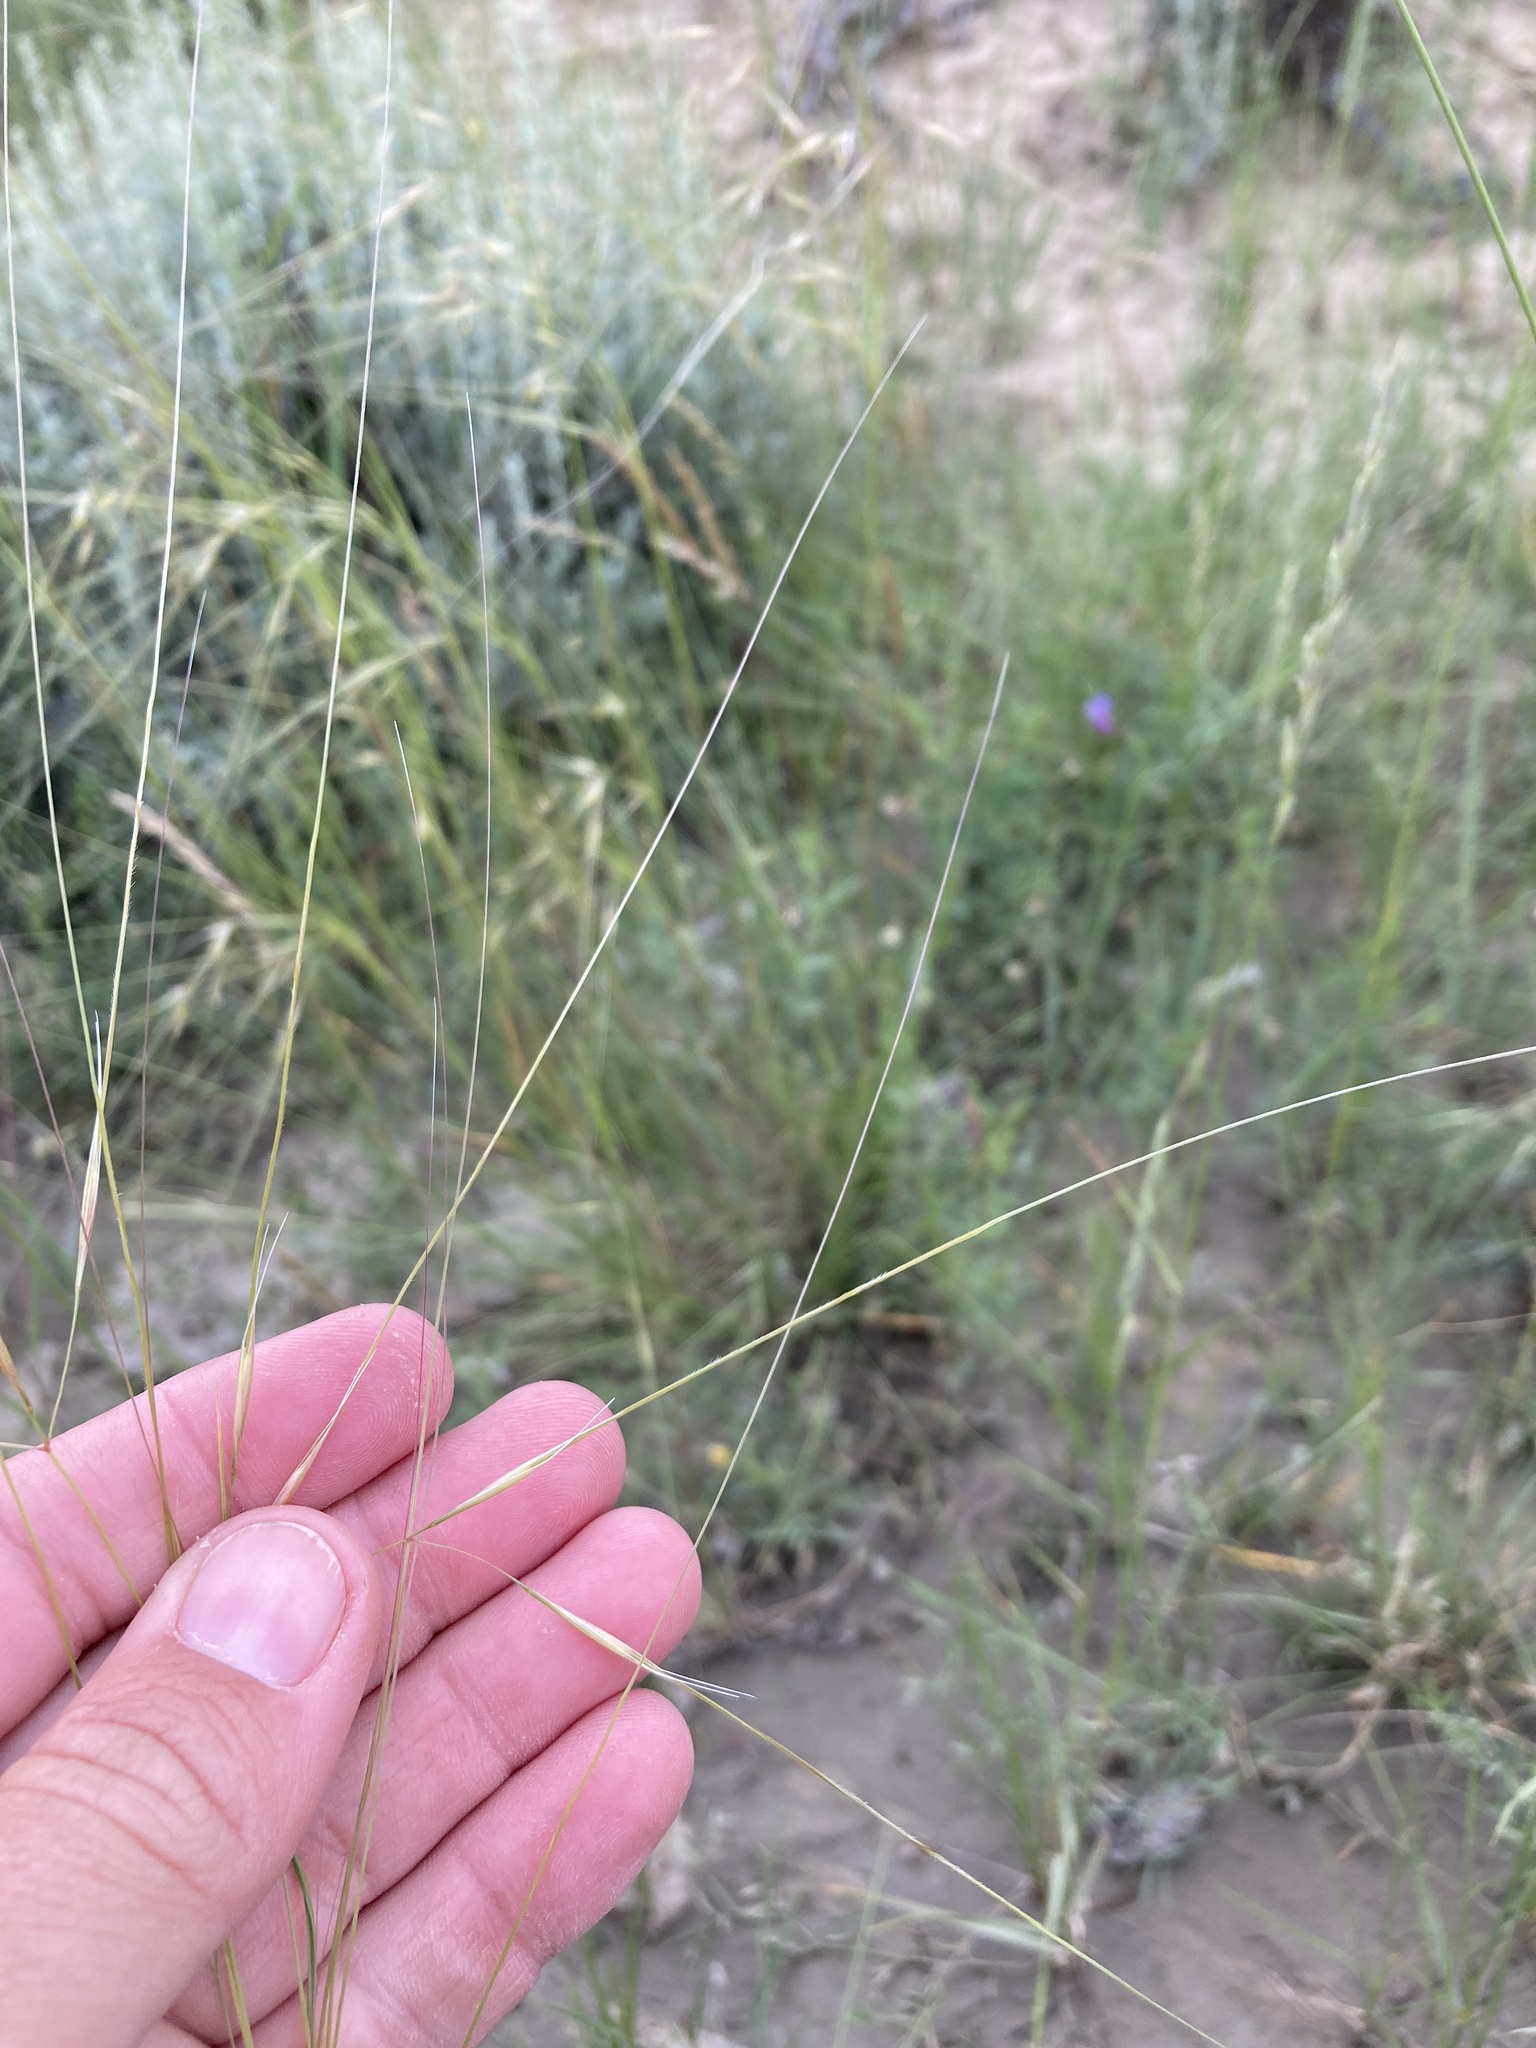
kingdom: Plantae
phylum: Tracheophyta
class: Liliopsida
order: Poales
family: Poaceae
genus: Hesperostipa
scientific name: Hesperostipa comata
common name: Needle-and-thread grass
